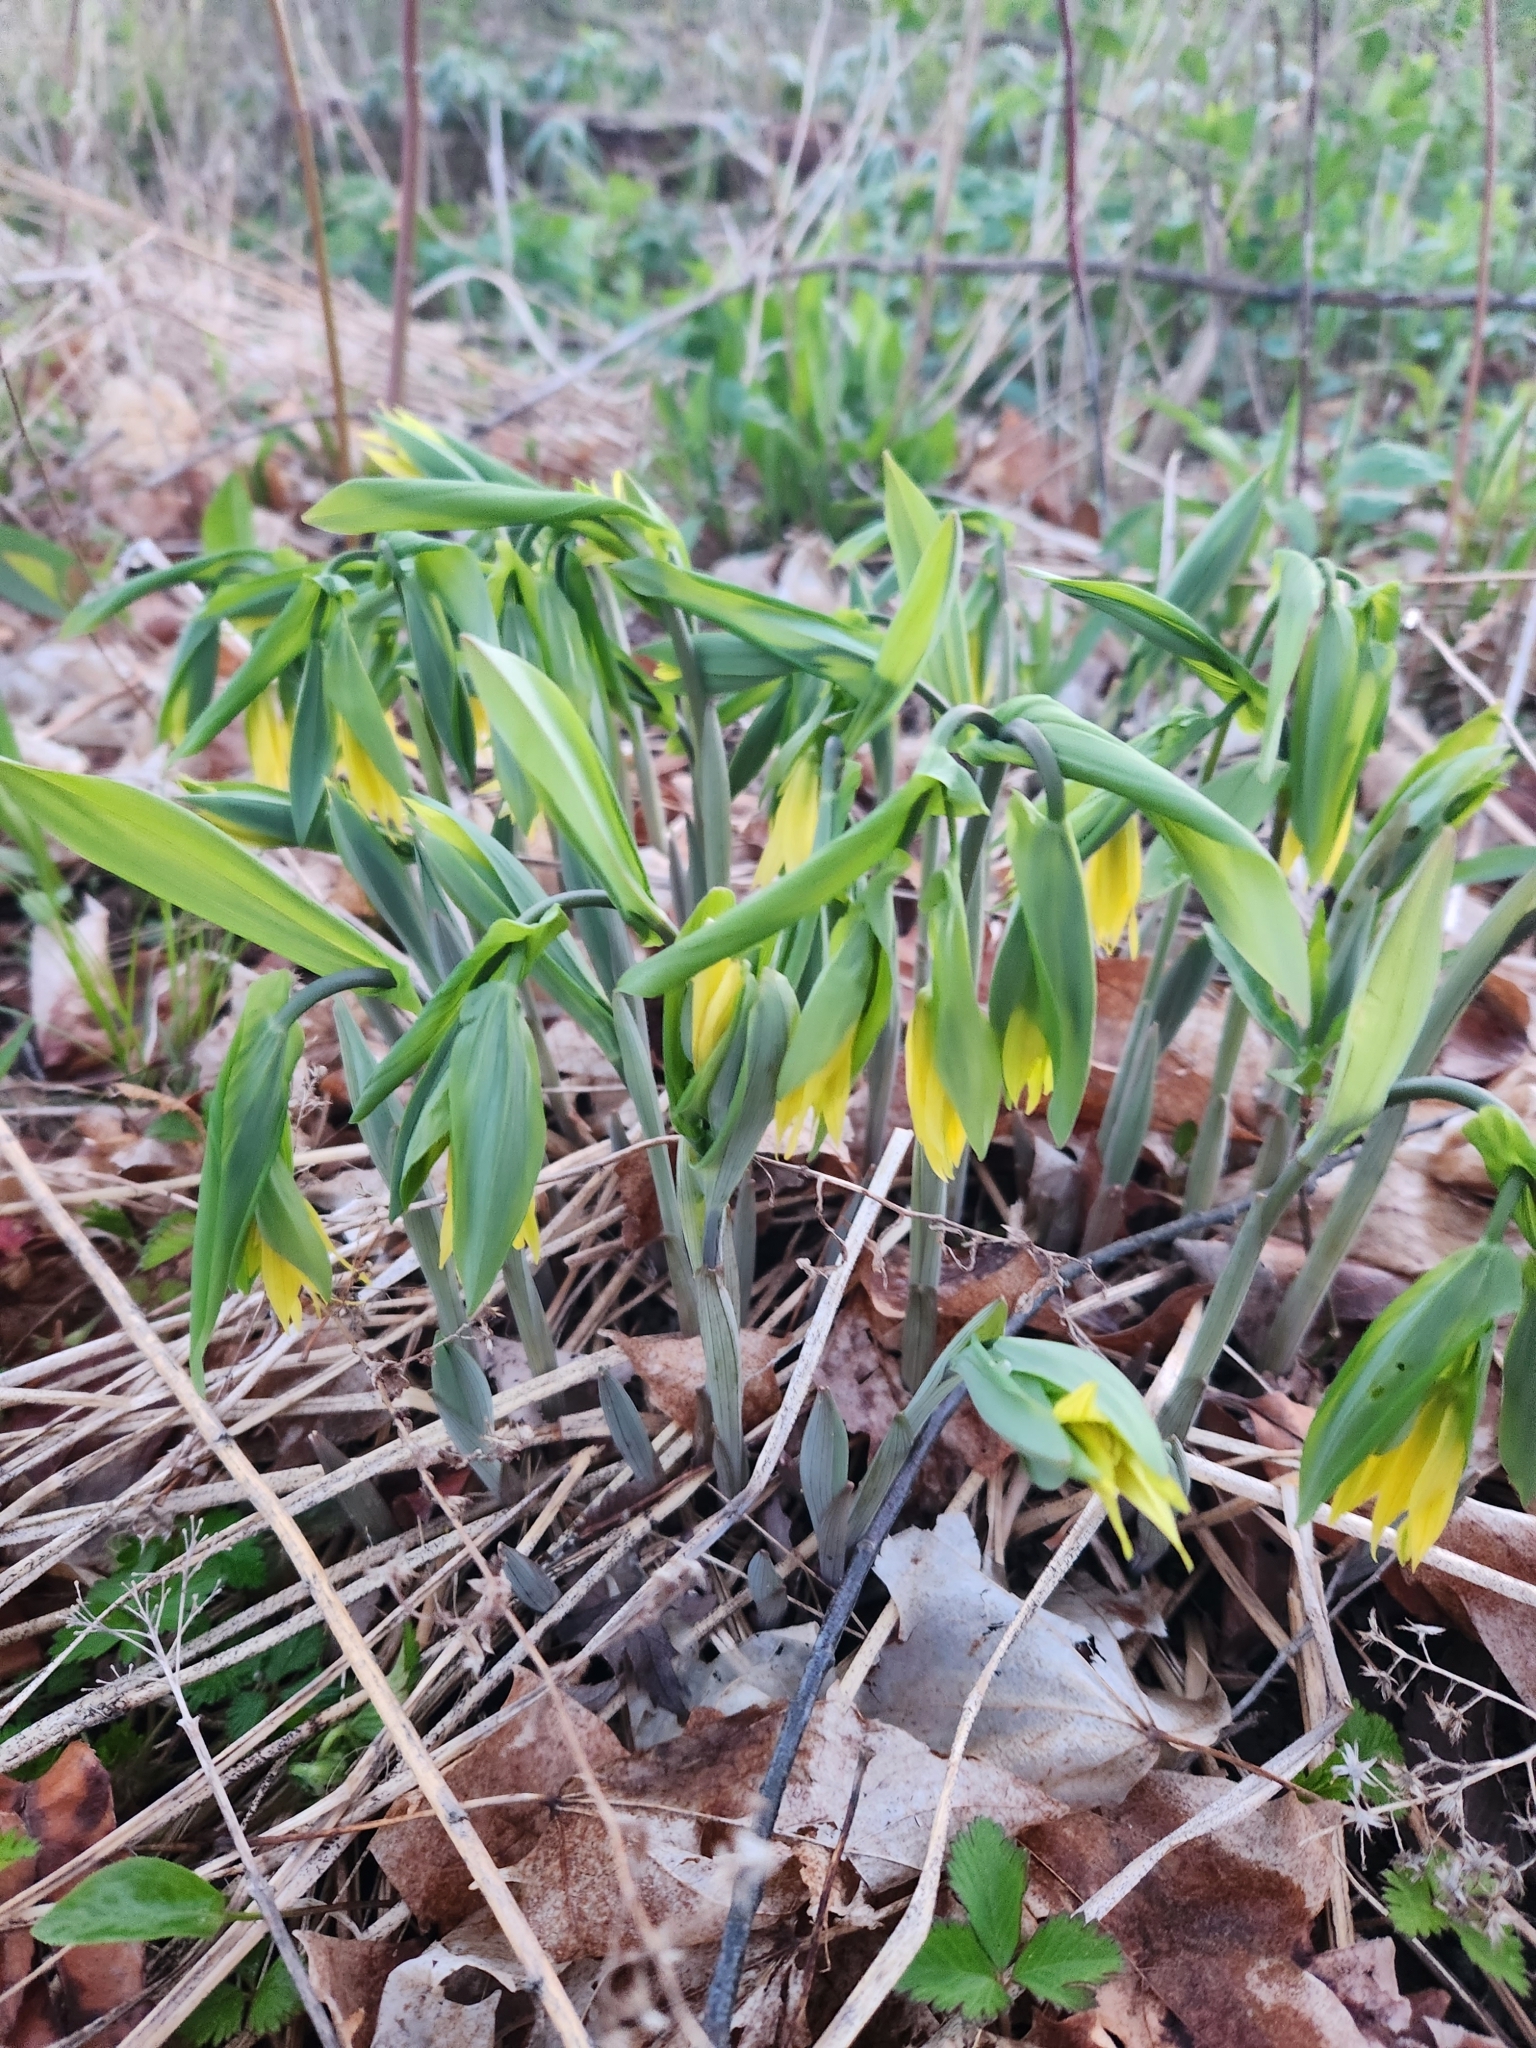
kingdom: Plantae
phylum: Tracheophyta
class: Liliopsida
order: Liliales
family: Colchicaceae
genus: Uvularia
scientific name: Uvularia grandiflora
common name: Bellwort
